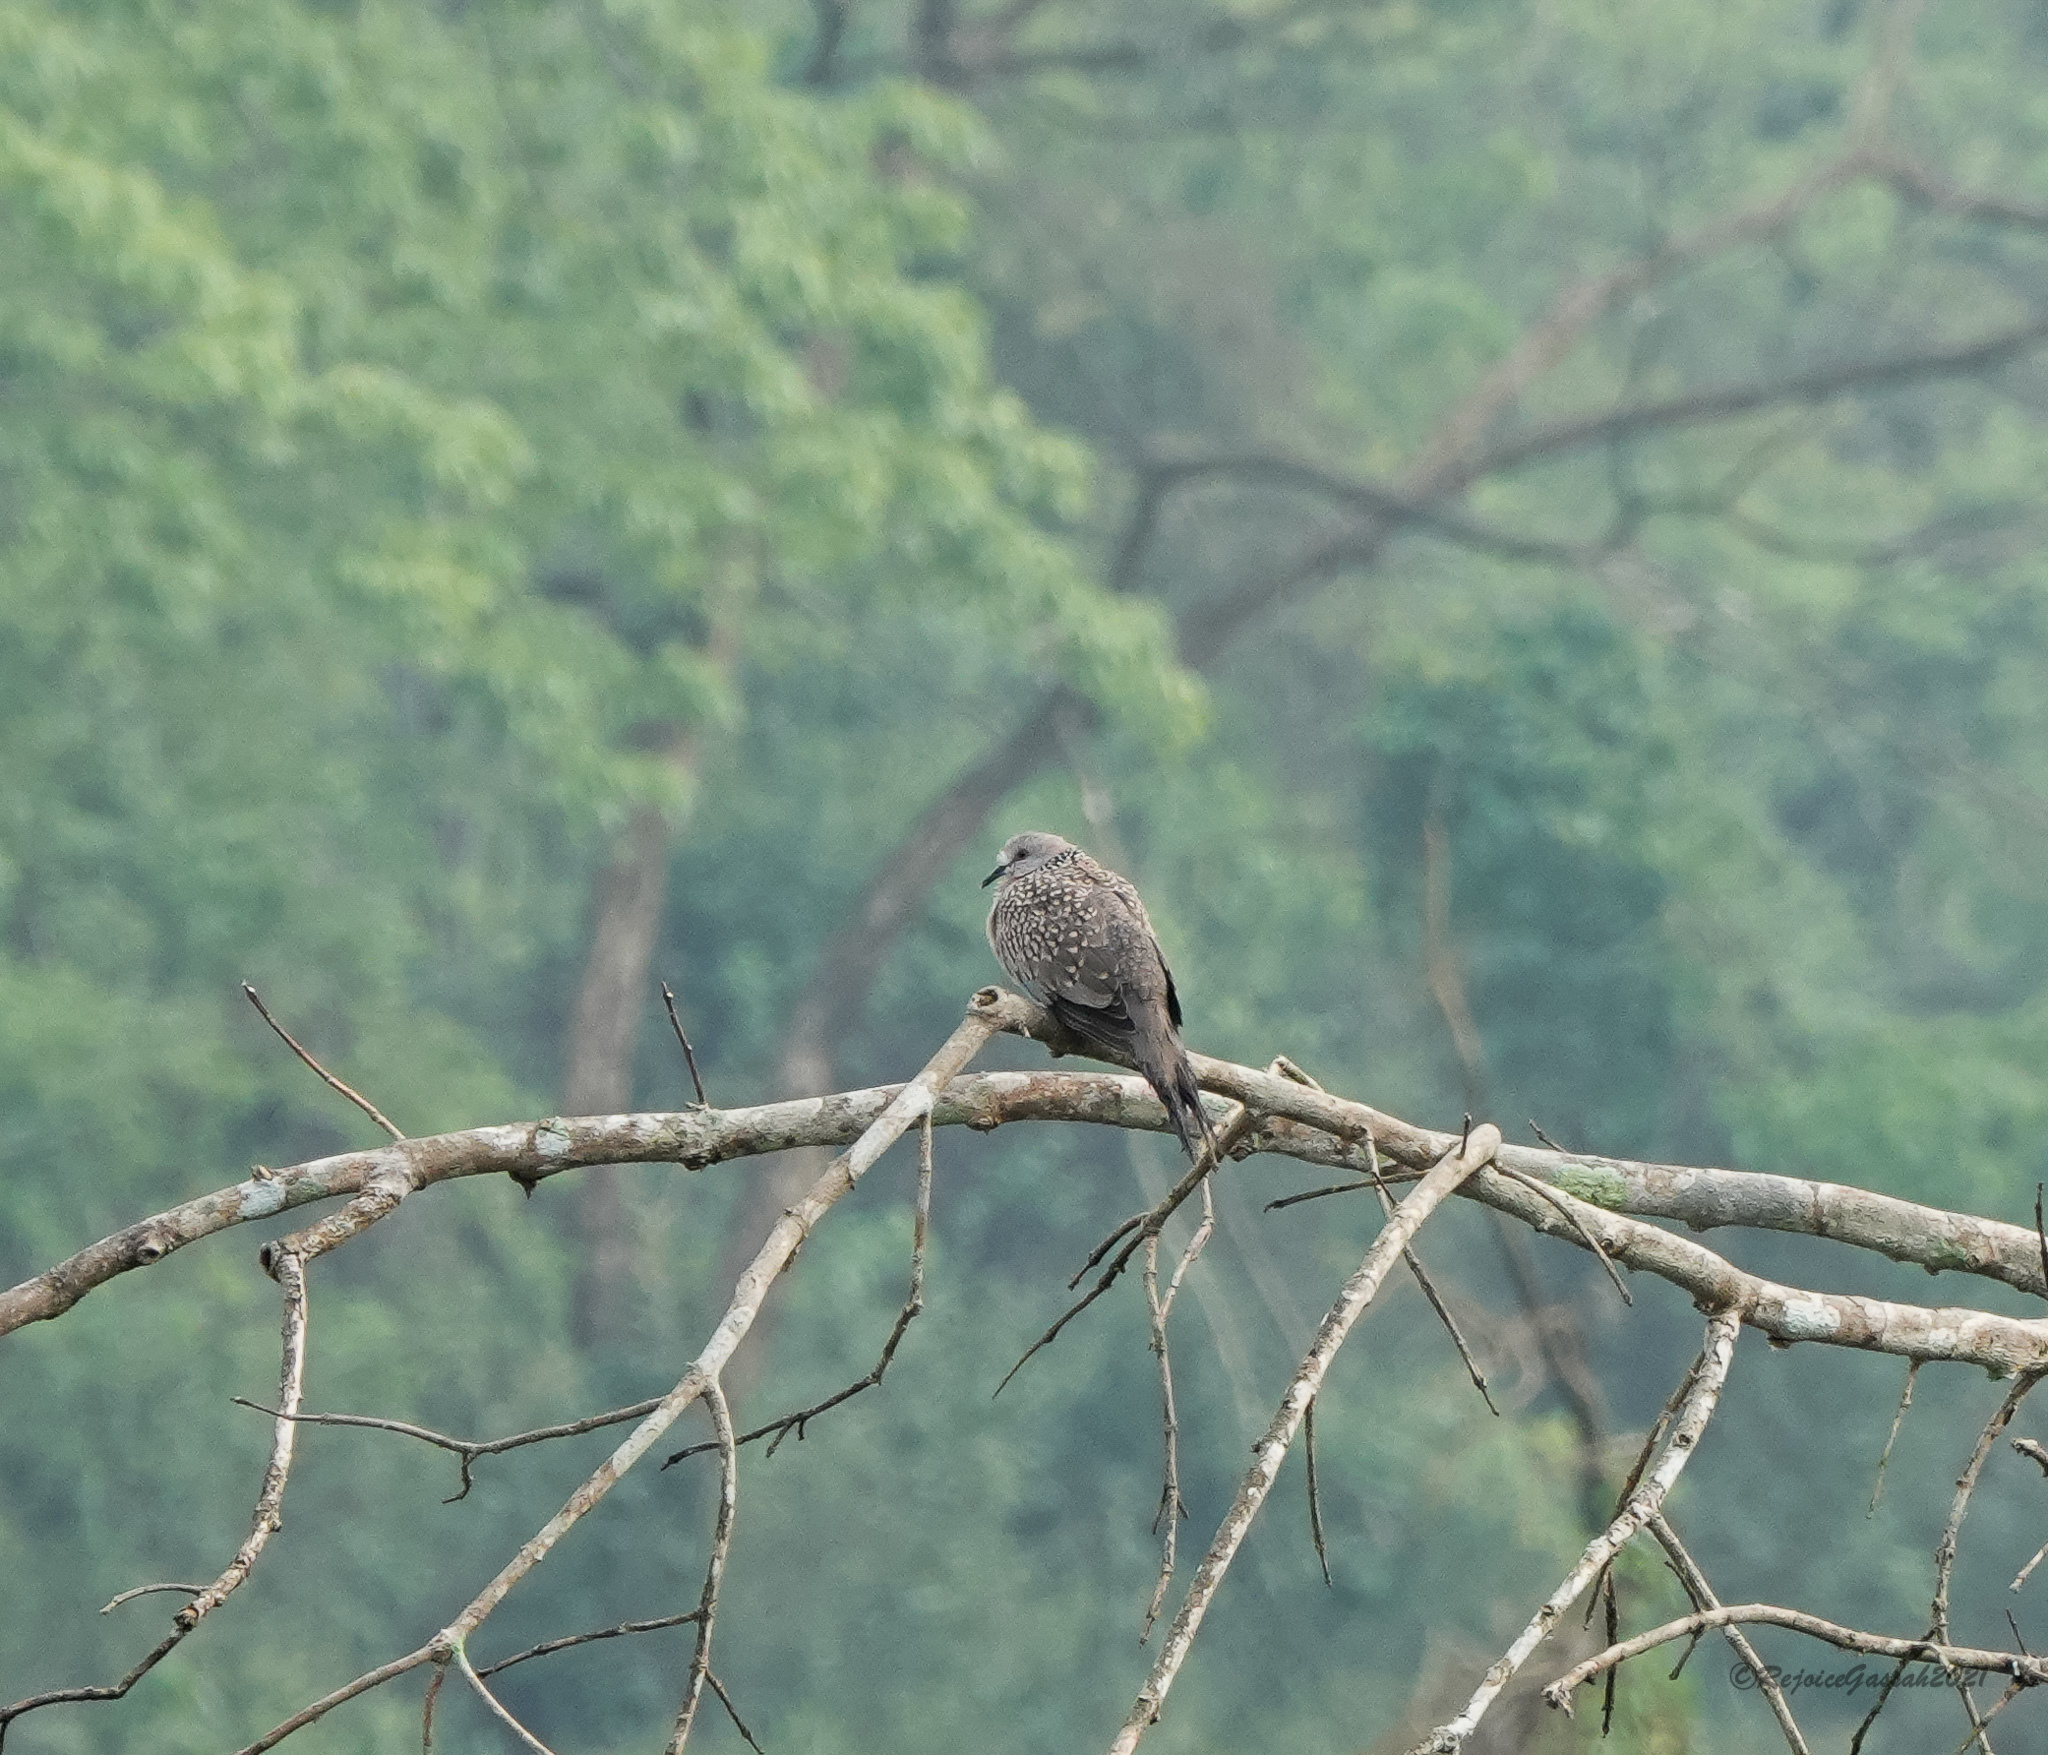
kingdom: Animalia
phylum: Chordata
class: Aves
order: Columbiformes
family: Columbidae
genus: Spilopelia
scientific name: Spilopelia chinensis
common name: Spotted dove
